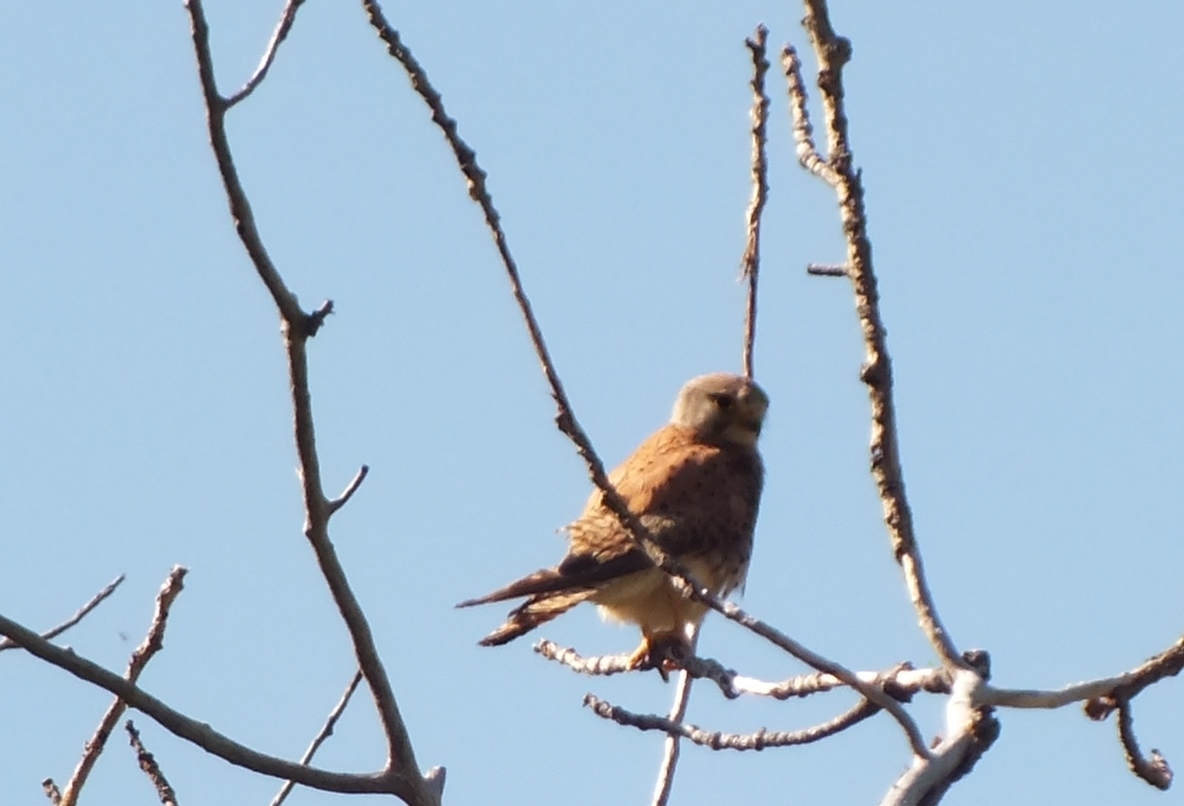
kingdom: Animalia
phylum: Chordata
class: Aves
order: Falconiformes
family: Falconidae
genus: Falco
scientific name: Falco tinnunculus
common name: Common kestrel
